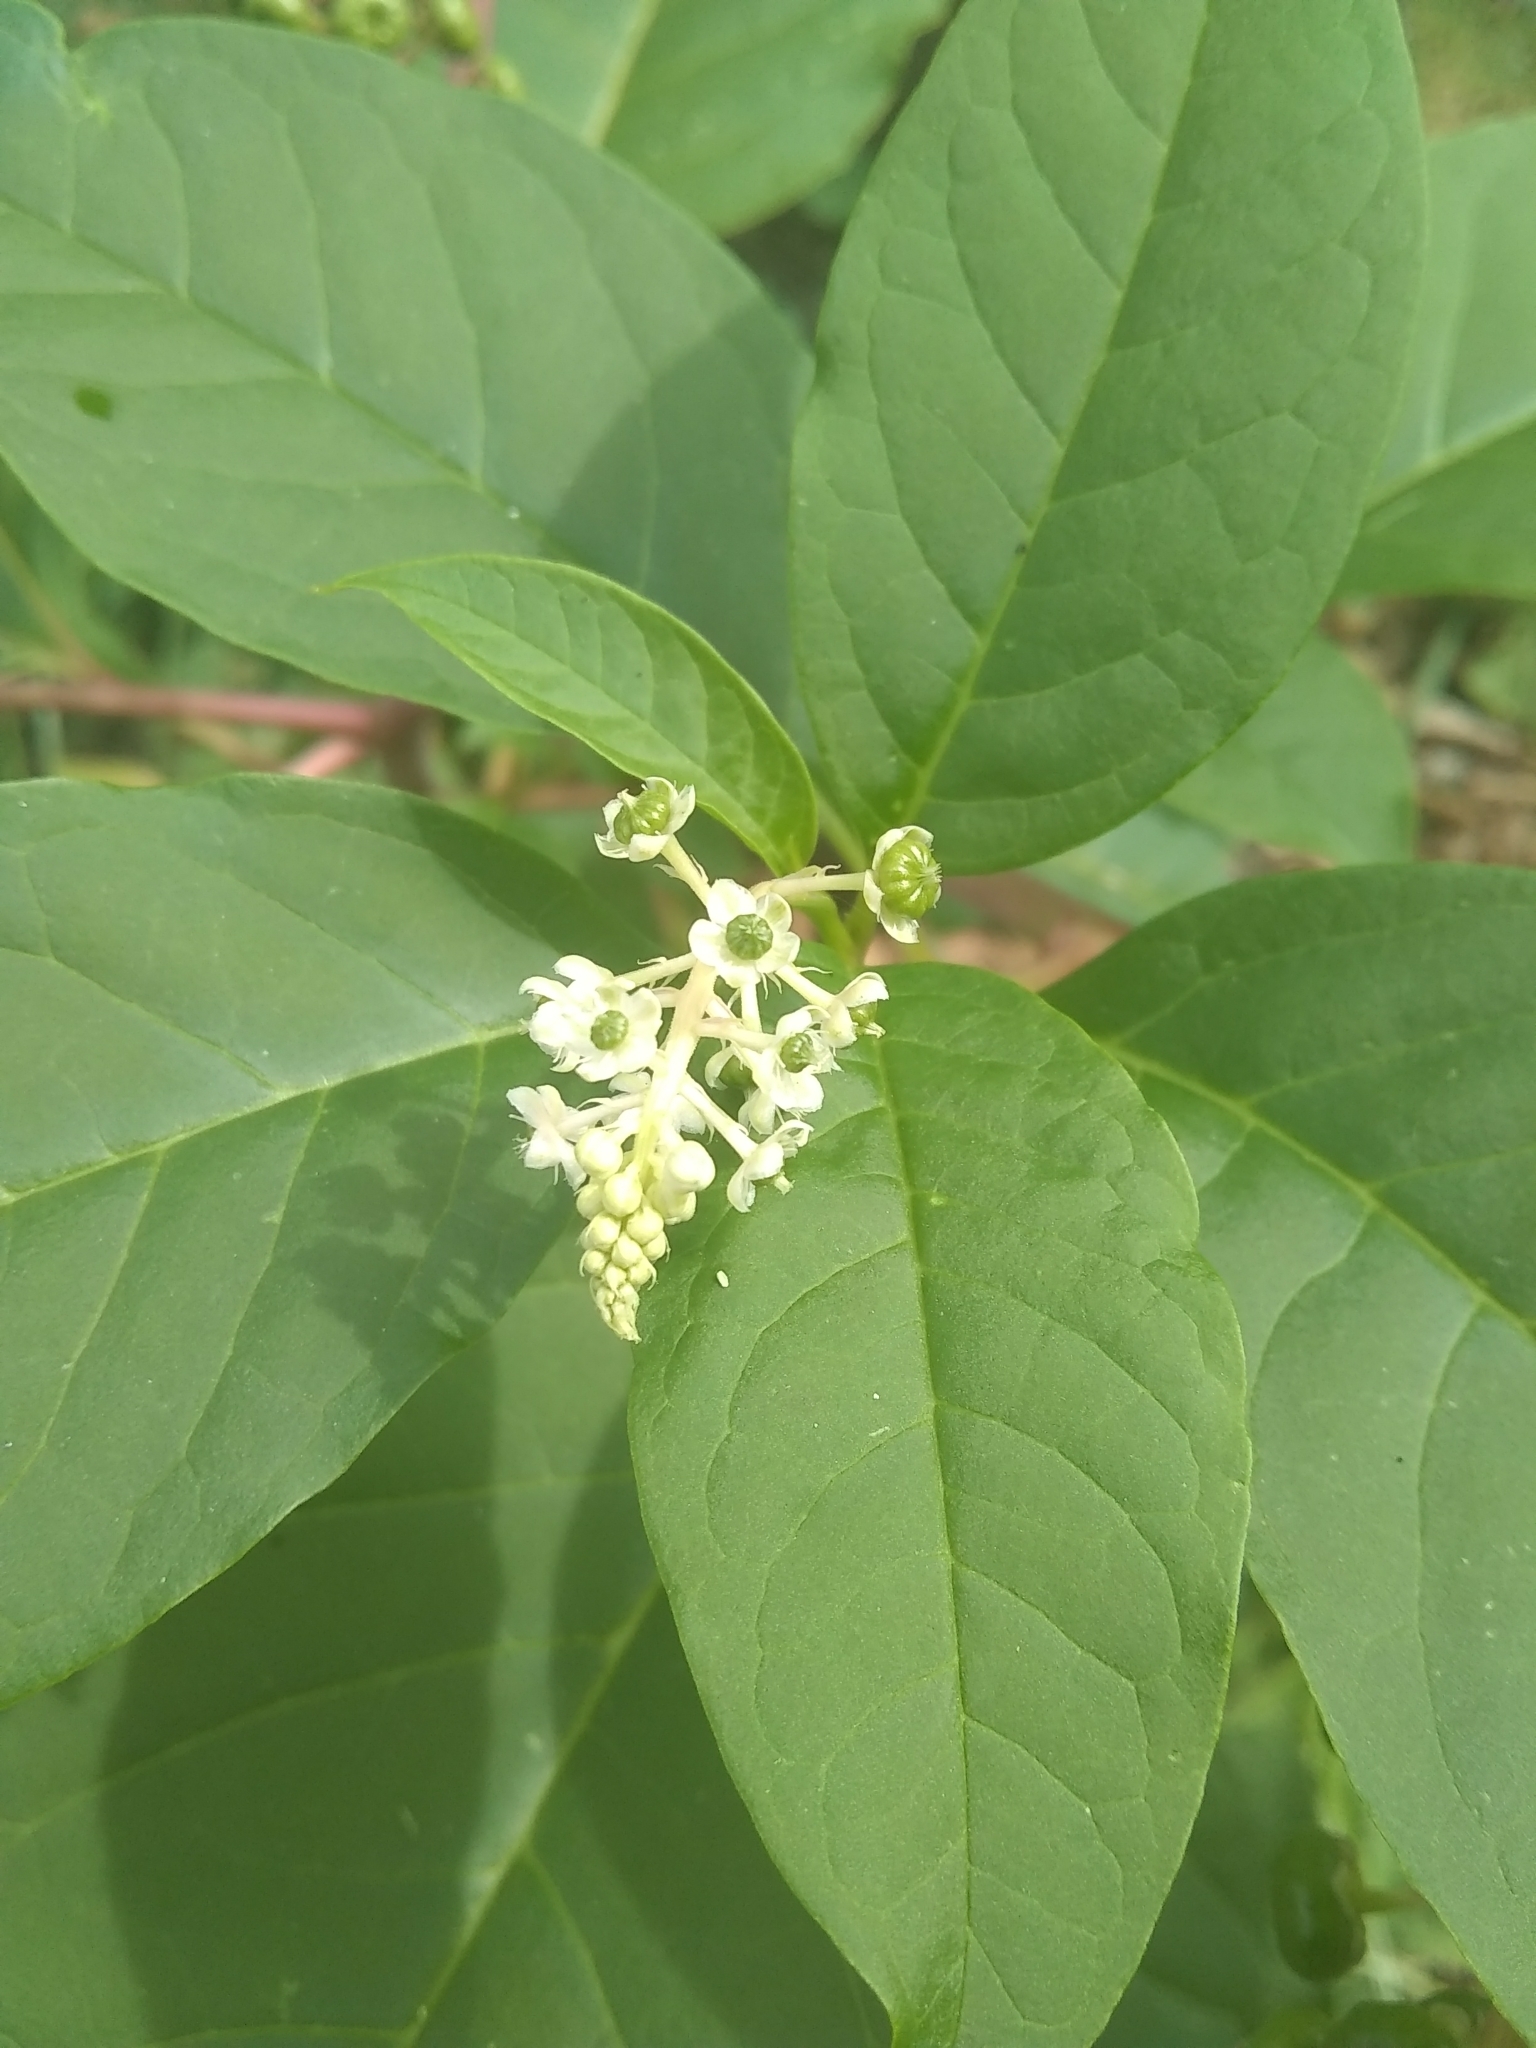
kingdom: Plantae
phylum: Tracheophyta
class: Magnoliopsida
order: Caryophyllales
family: Phytolaccaceae
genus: Phytolacca
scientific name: Phytolacca americana
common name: American pokeweed
